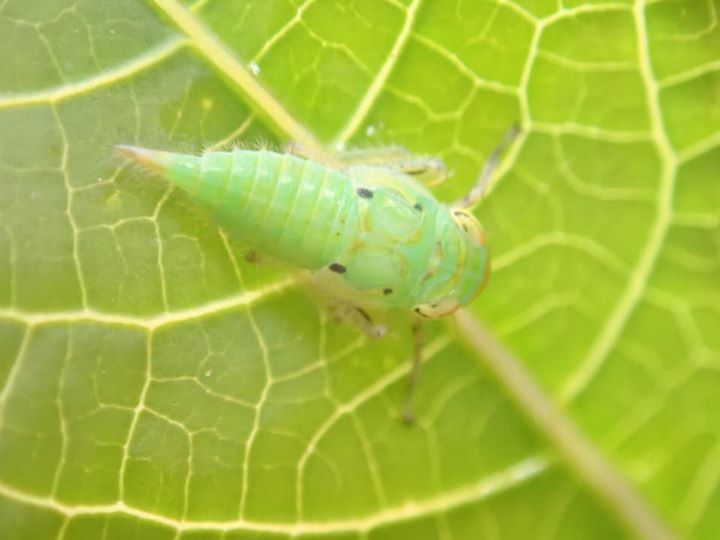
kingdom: Animalia
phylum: Arthropoda
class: Insecta
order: Hemiptera
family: Cicadellidae
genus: Tartessus
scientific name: Tartessus ferrugineus
